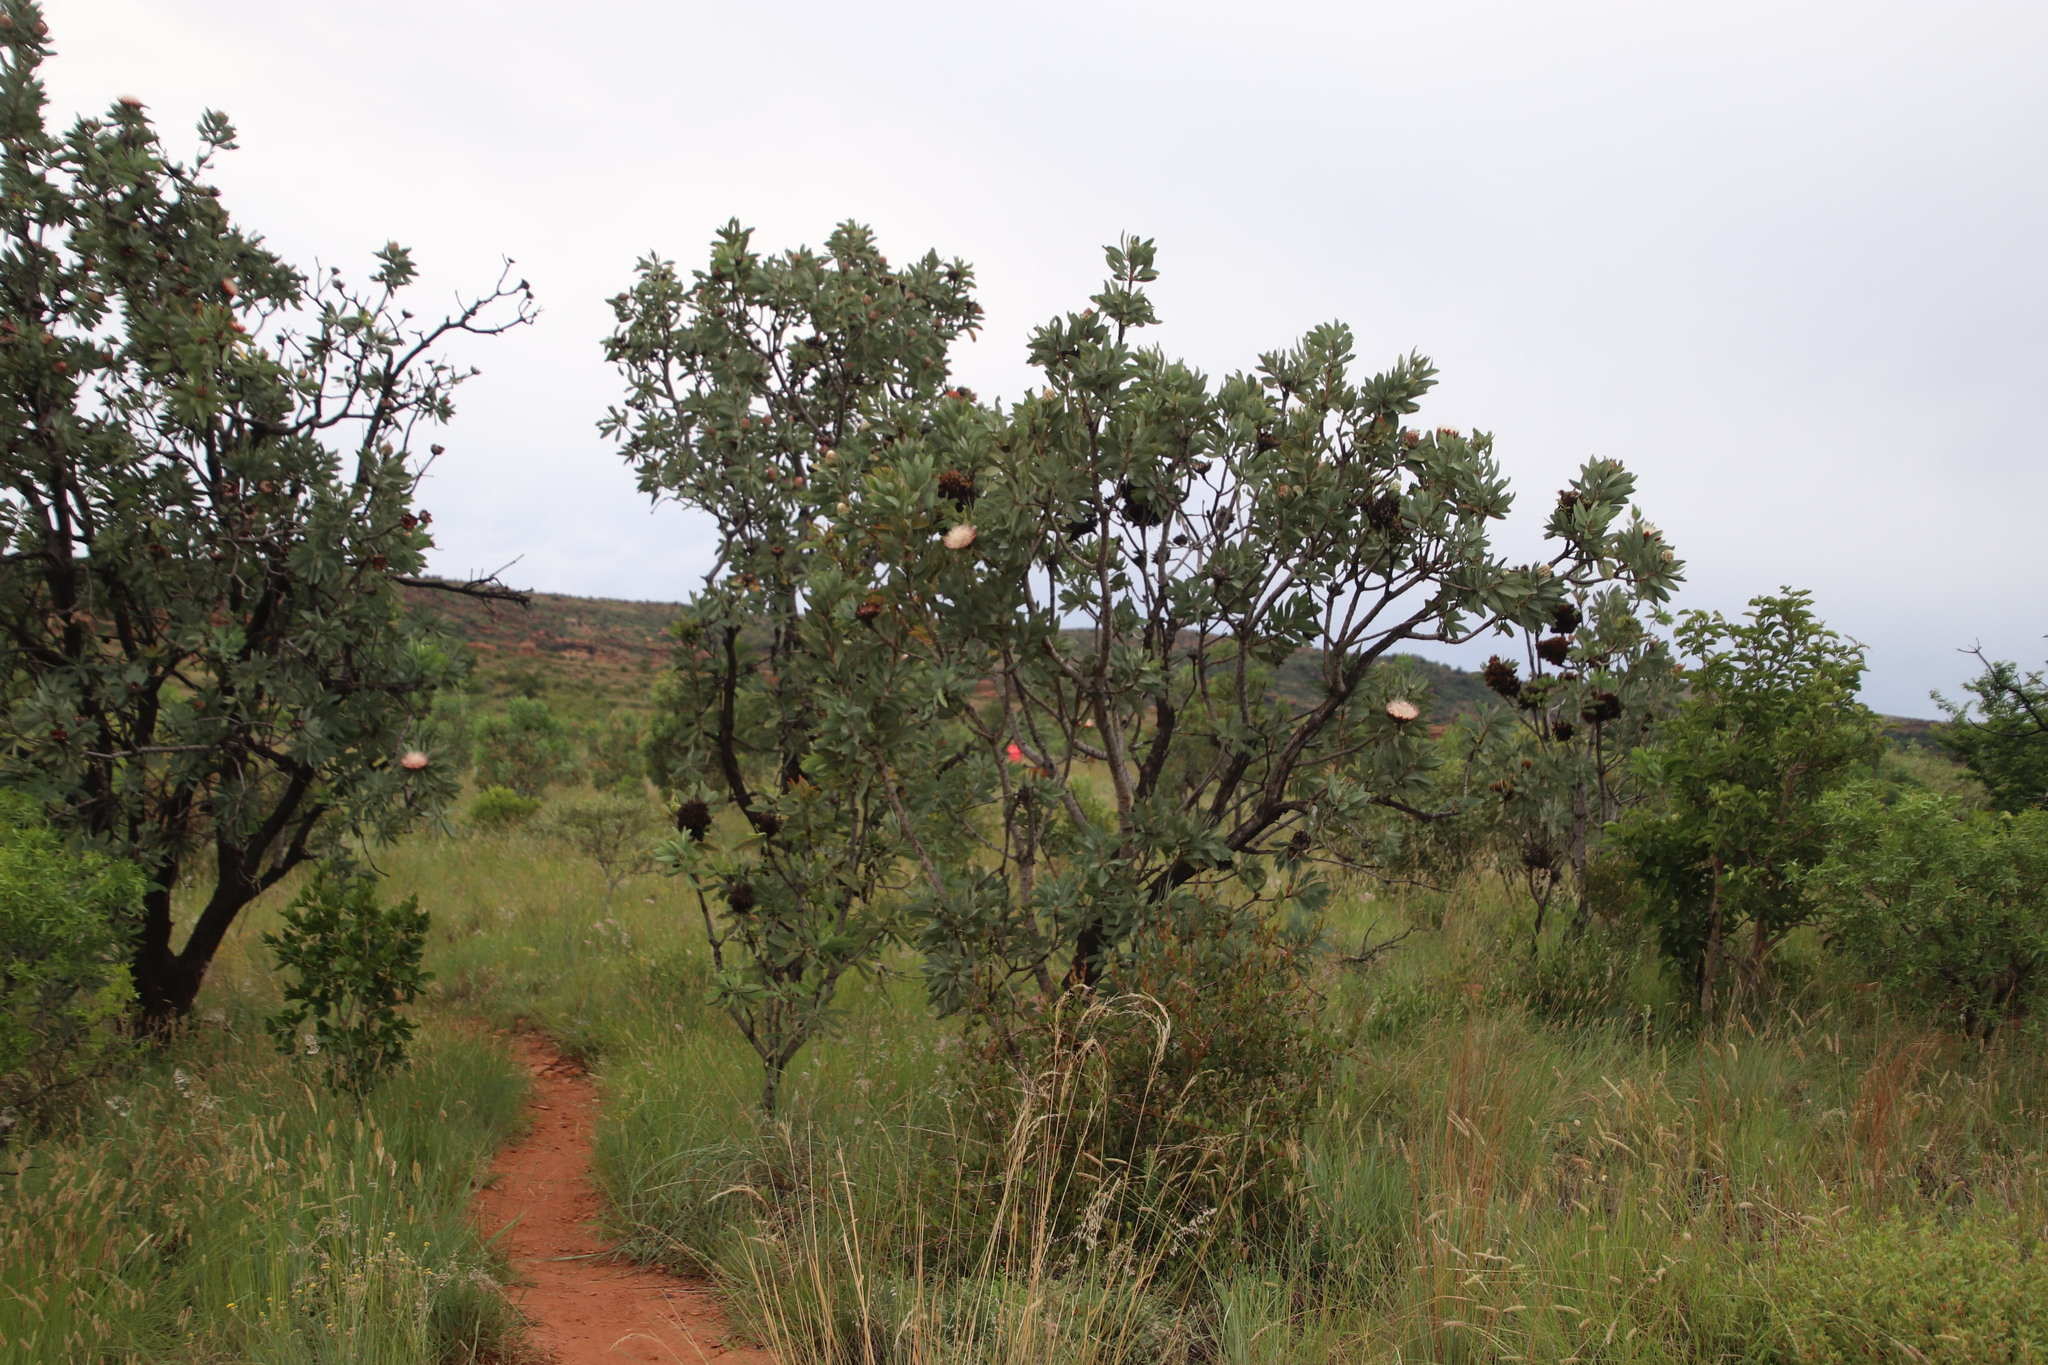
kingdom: Plantae
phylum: Tracheophyta
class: Magnoliopsida
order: Proteales
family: Proteaceae
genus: Protea
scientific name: Protea caffra
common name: Common sugarbush
